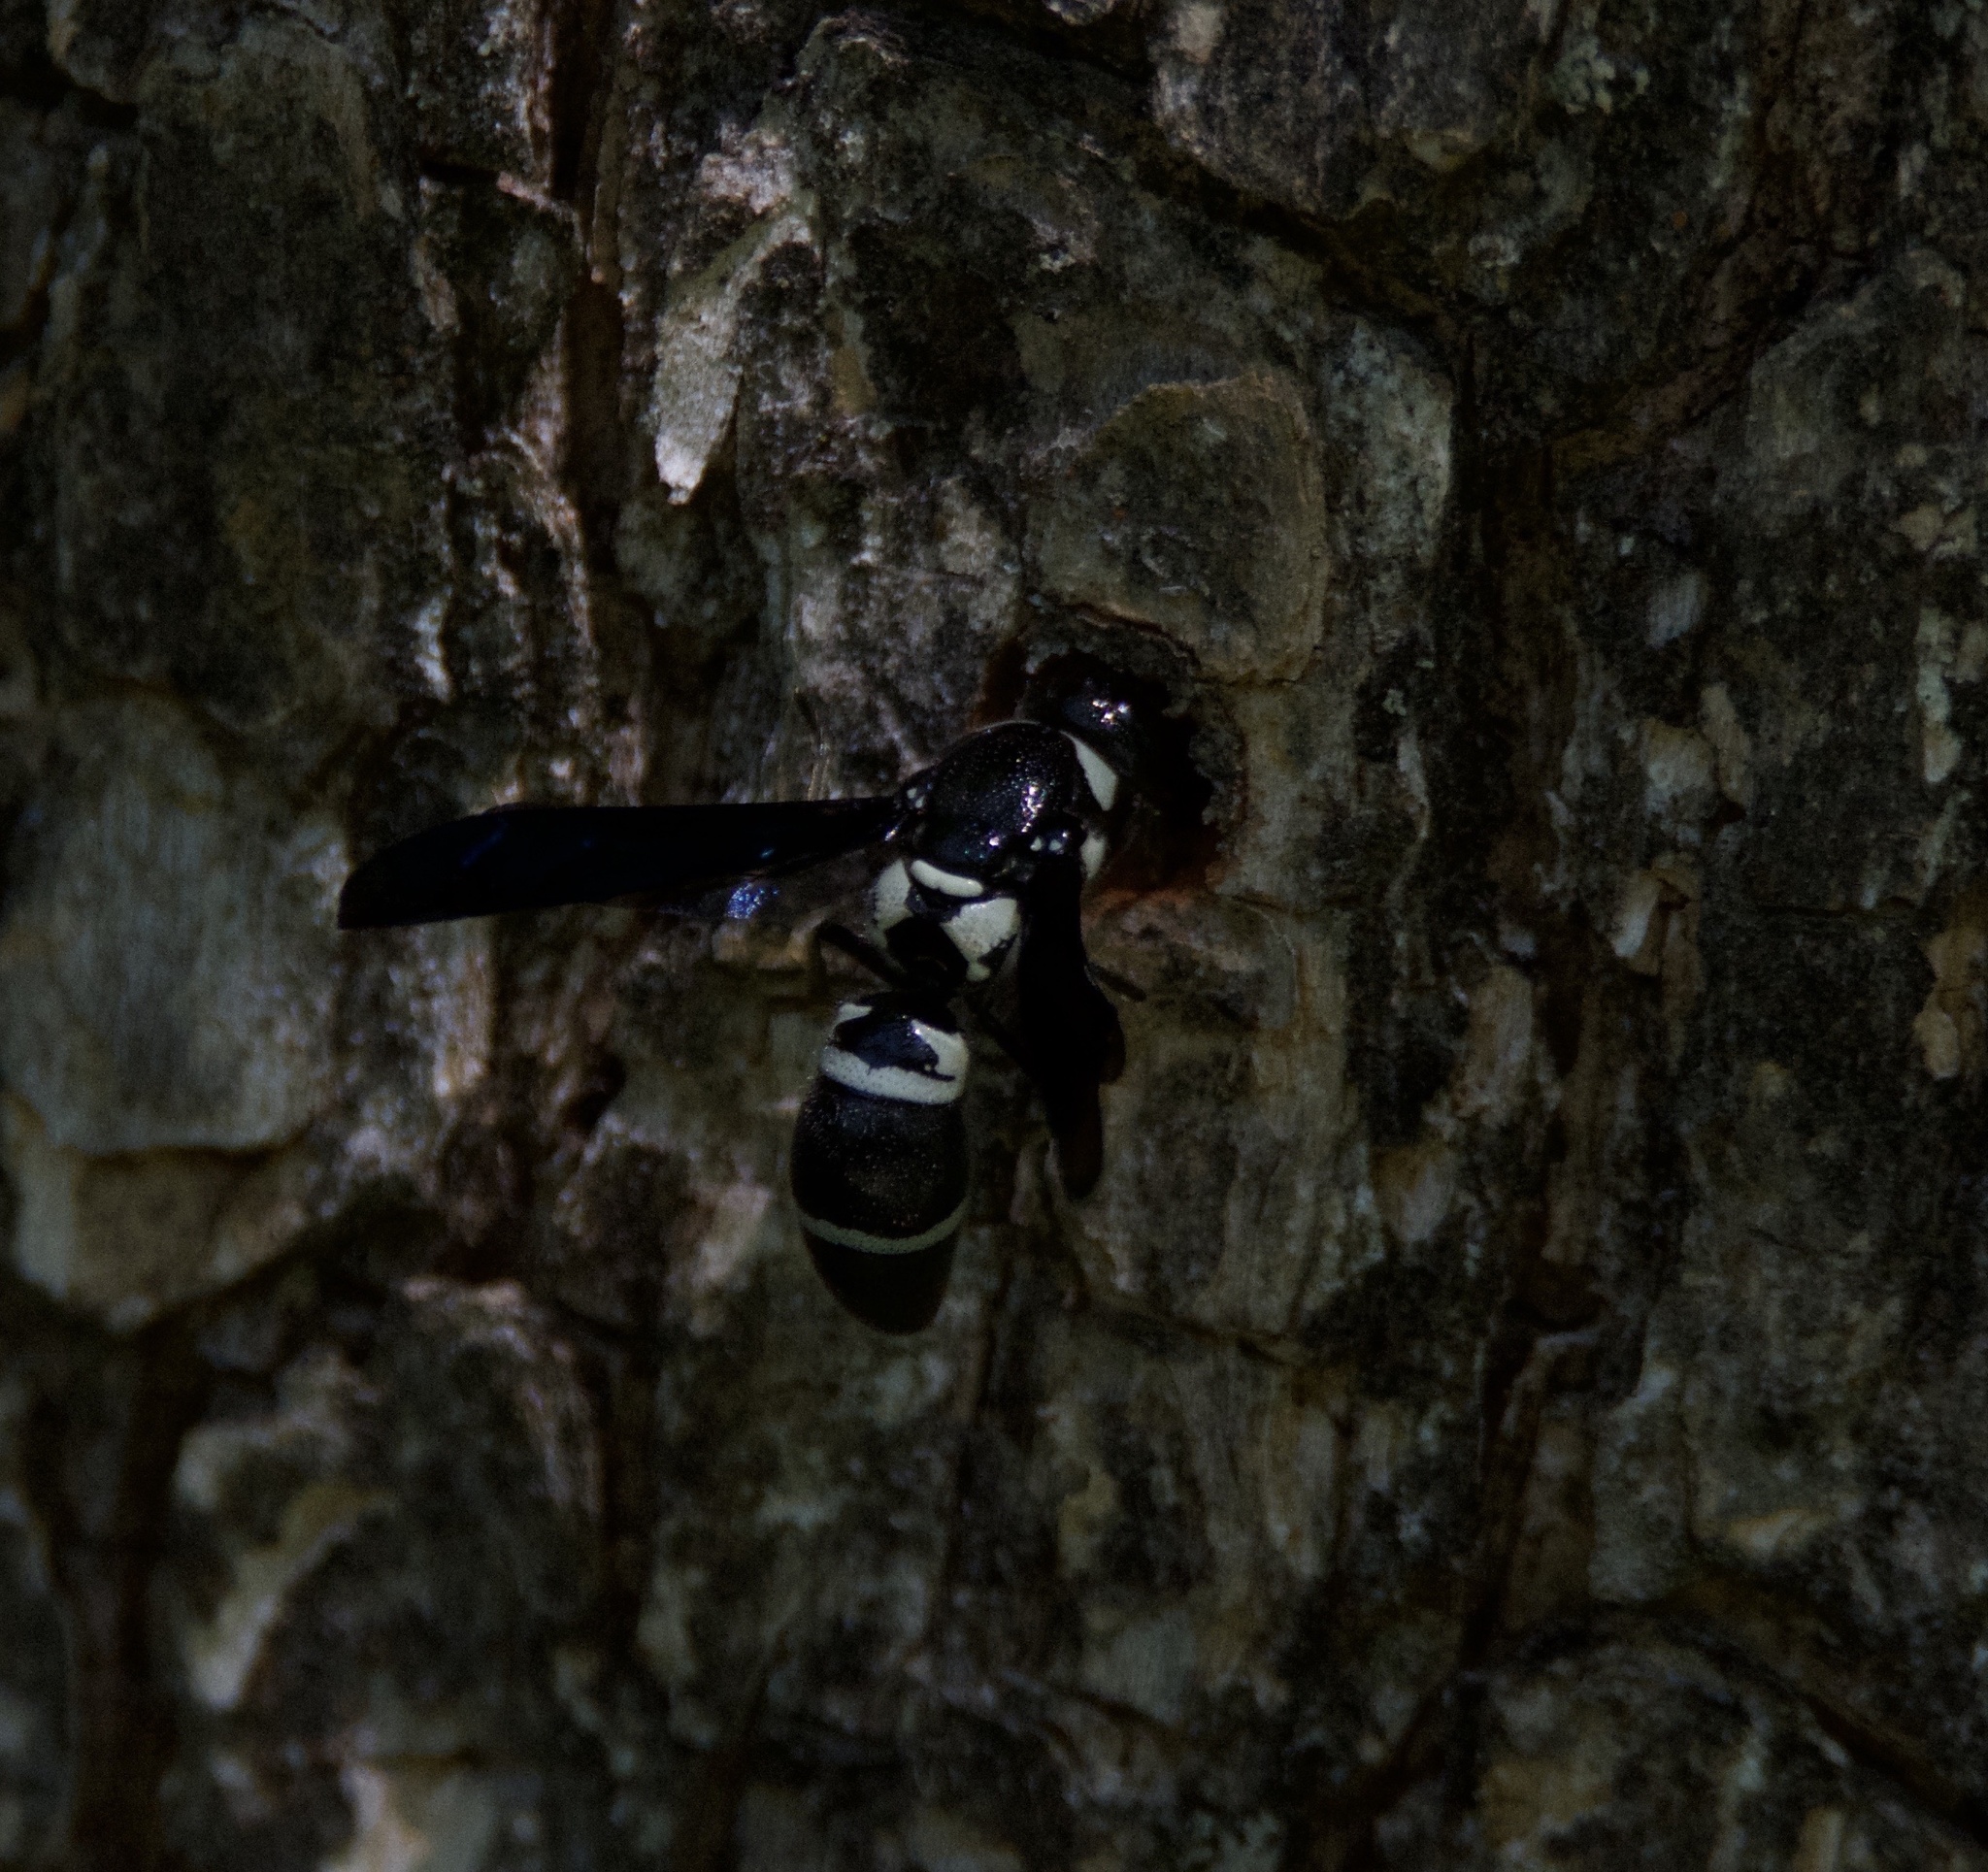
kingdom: Animalia
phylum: Arthropoda
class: Insecta
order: Hymenoptera
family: Eumenidae
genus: Pseudodynerus
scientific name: Pseudodynerus quadrisectus
